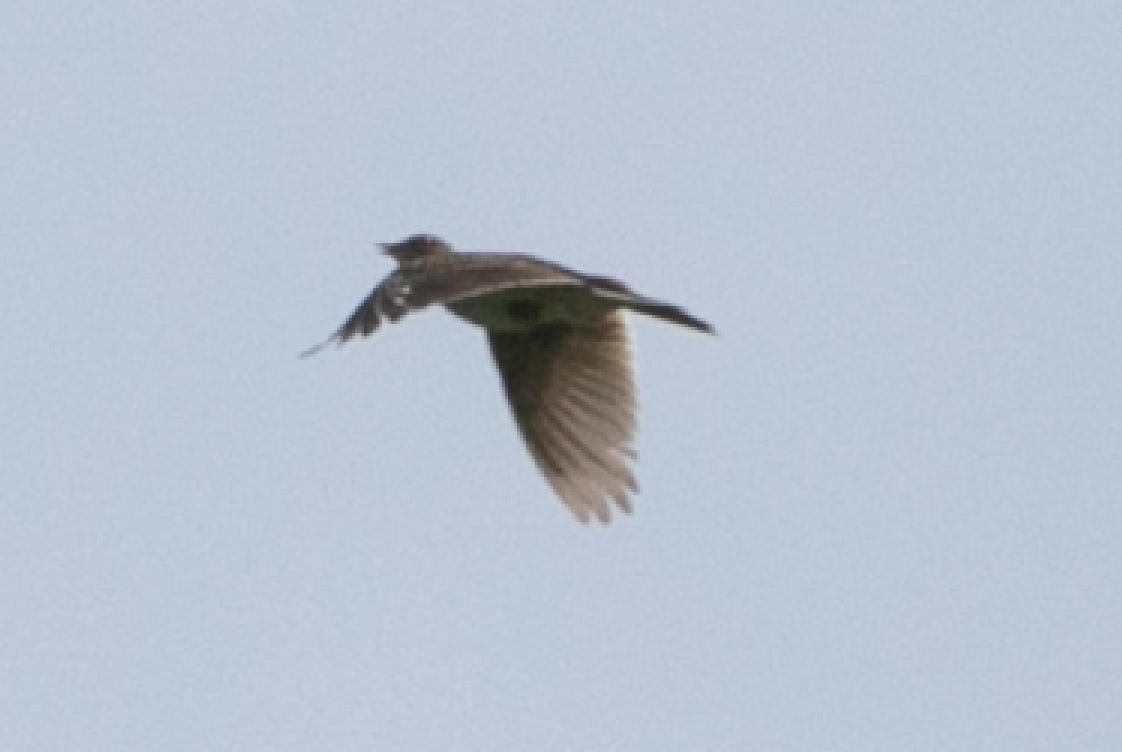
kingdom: Animalia
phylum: Chordata
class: Aves
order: Passeriformes
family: Alaudidae
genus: Alauda
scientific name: Alauda arvensis
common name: Eurasian skylark
